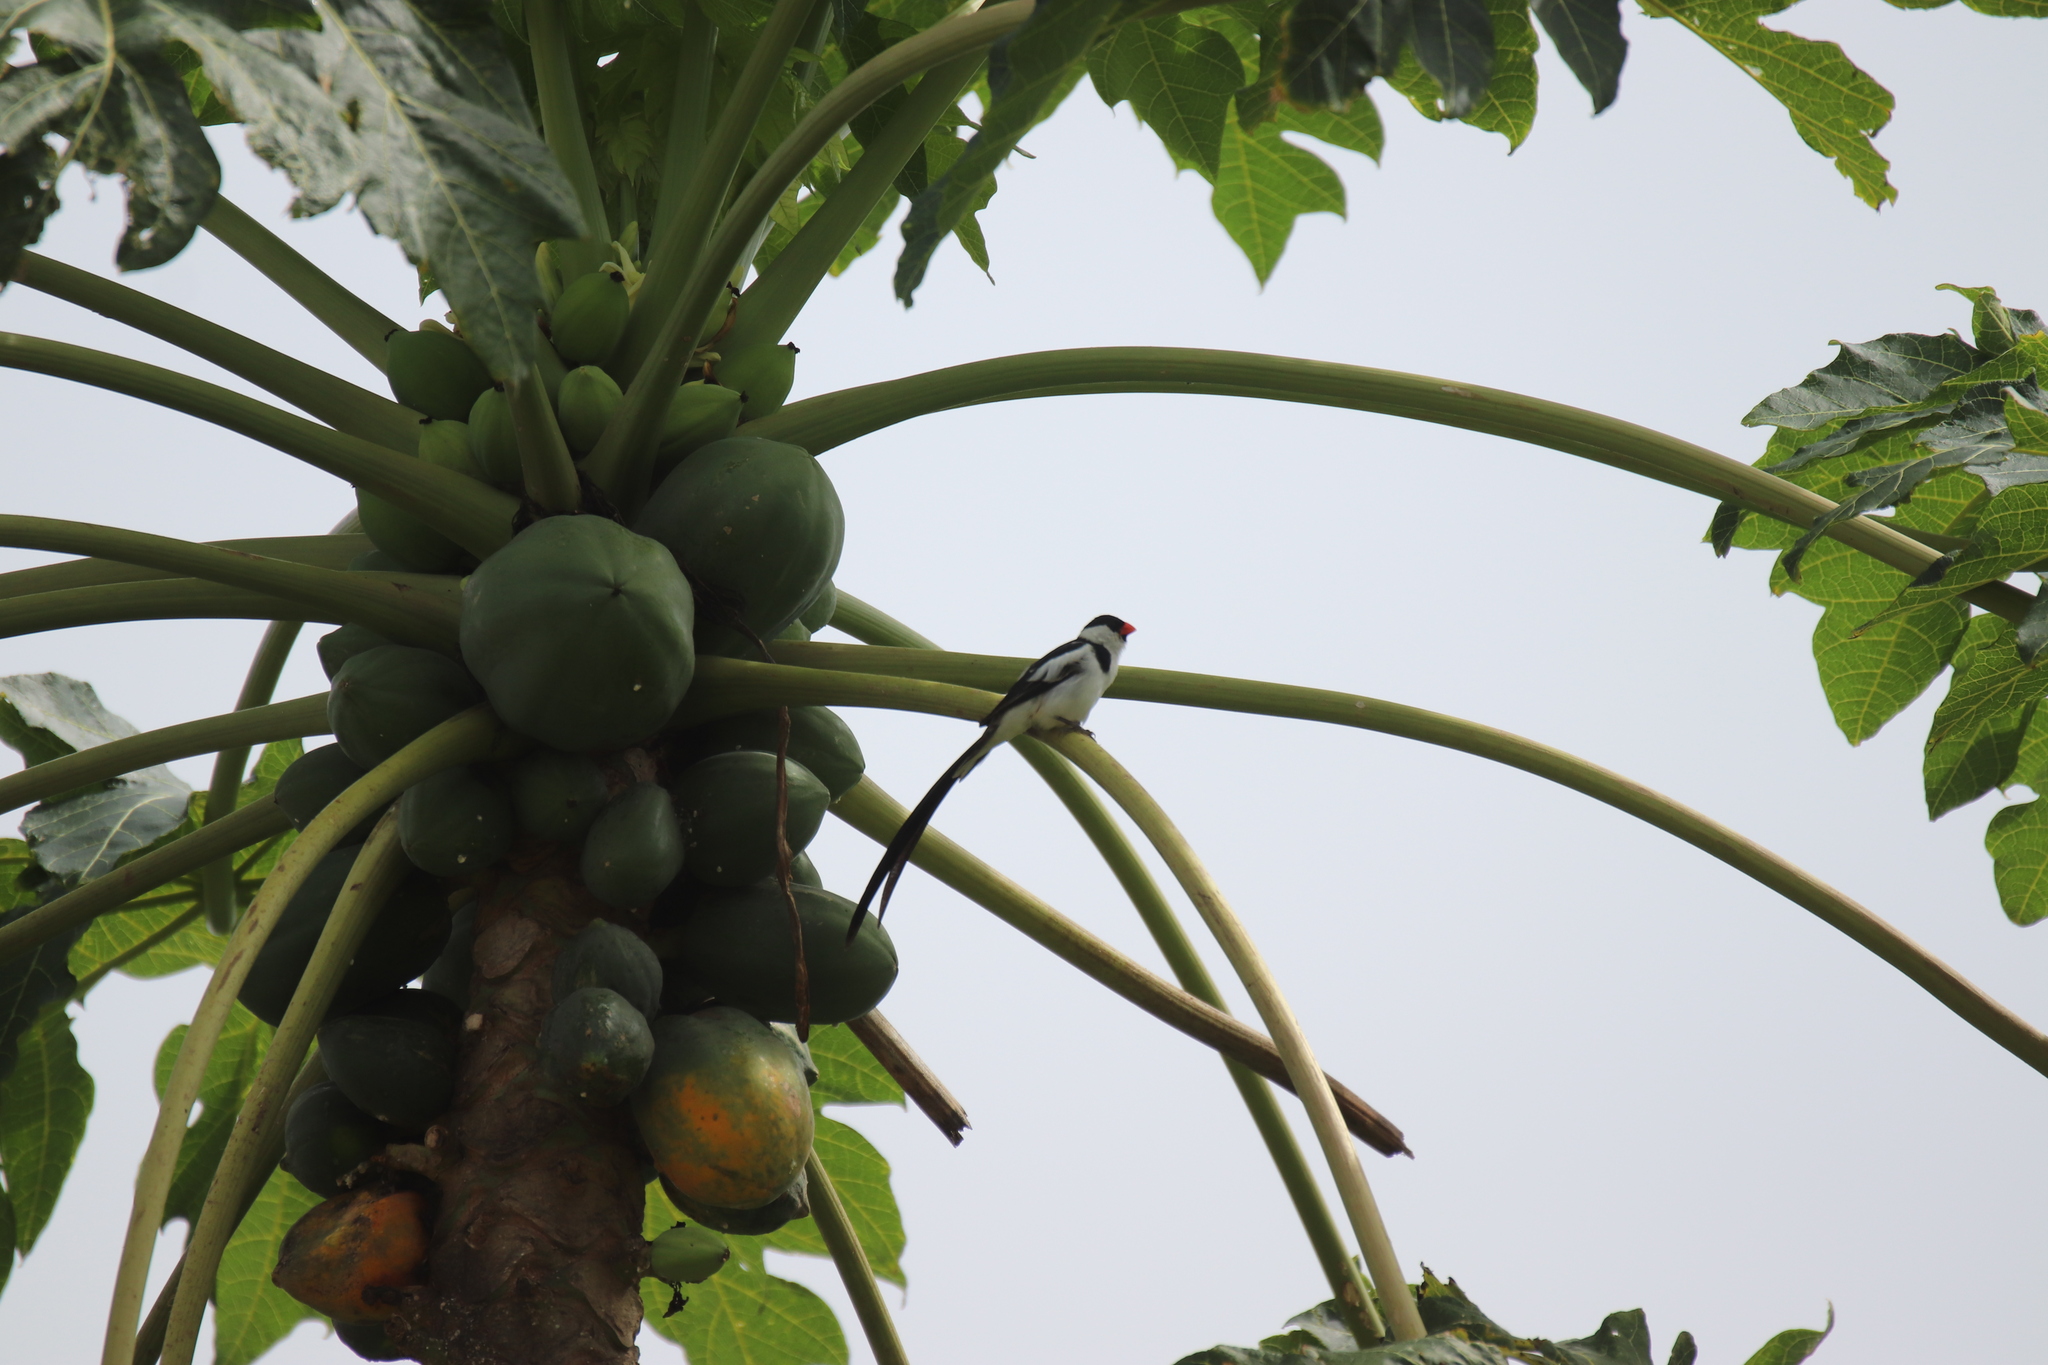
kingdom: Animalia
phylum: Chordata
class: Aves
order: Passeriformes
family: Viduidae
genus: Vidua
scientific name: Vidua macroura
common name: Pin-tailed whydah
